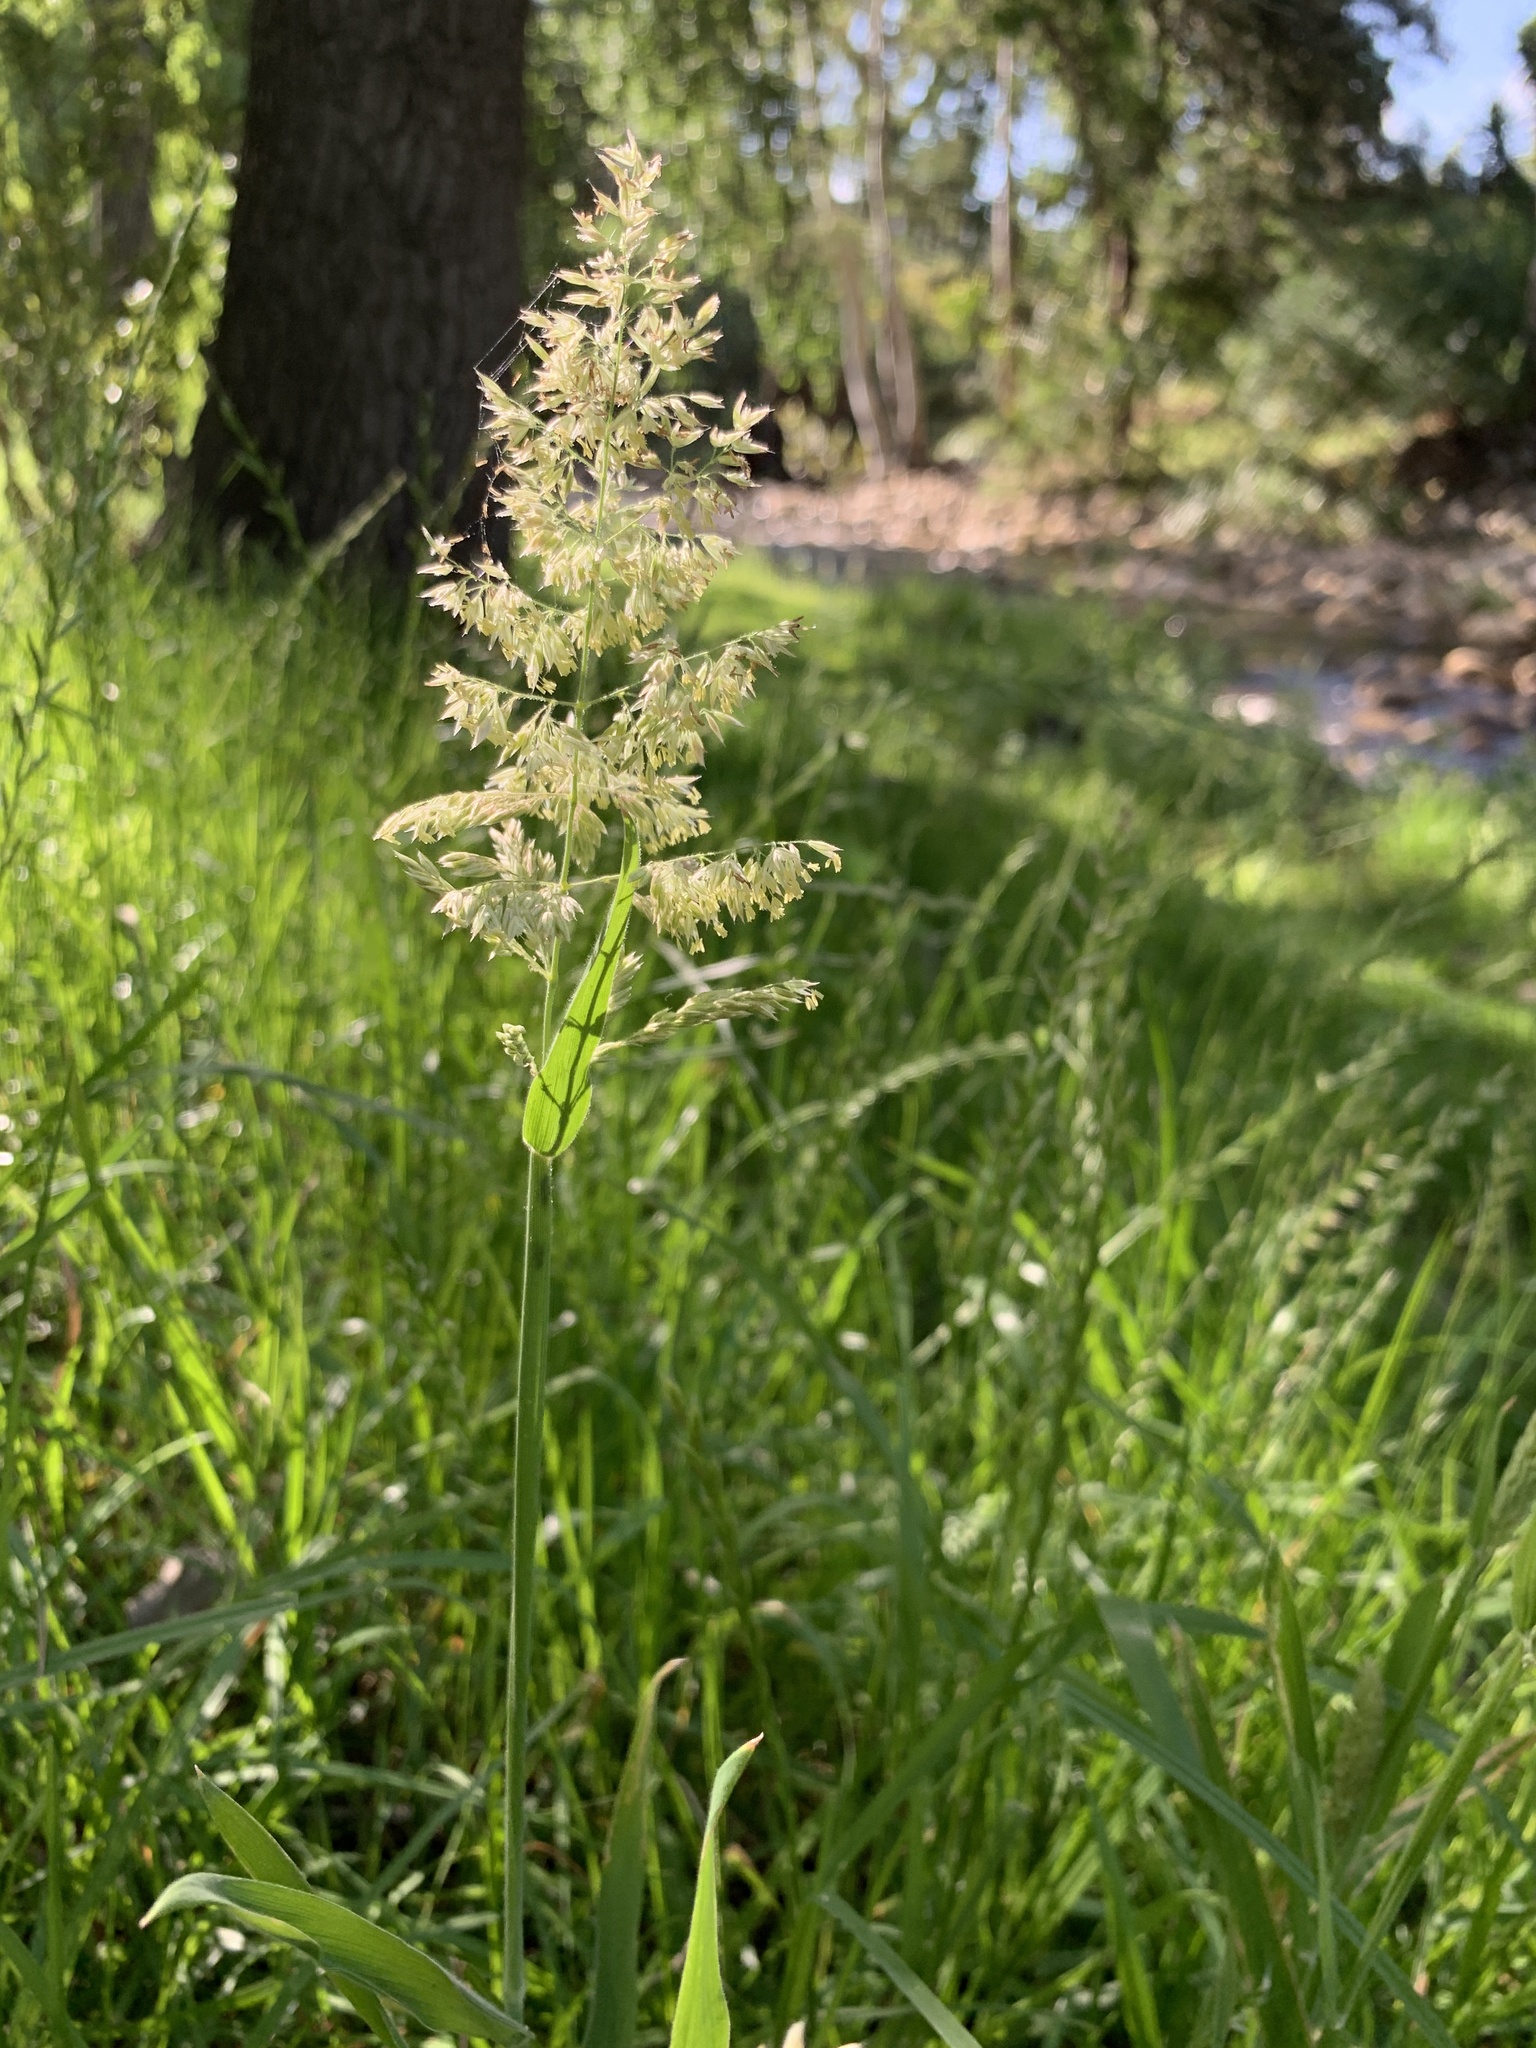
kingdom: Plantae
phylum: Tracheophyta
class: Liliopsida
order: Poales
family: Poaceae
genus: Polypogon
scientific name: Polypogon viridis
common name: Water bent
